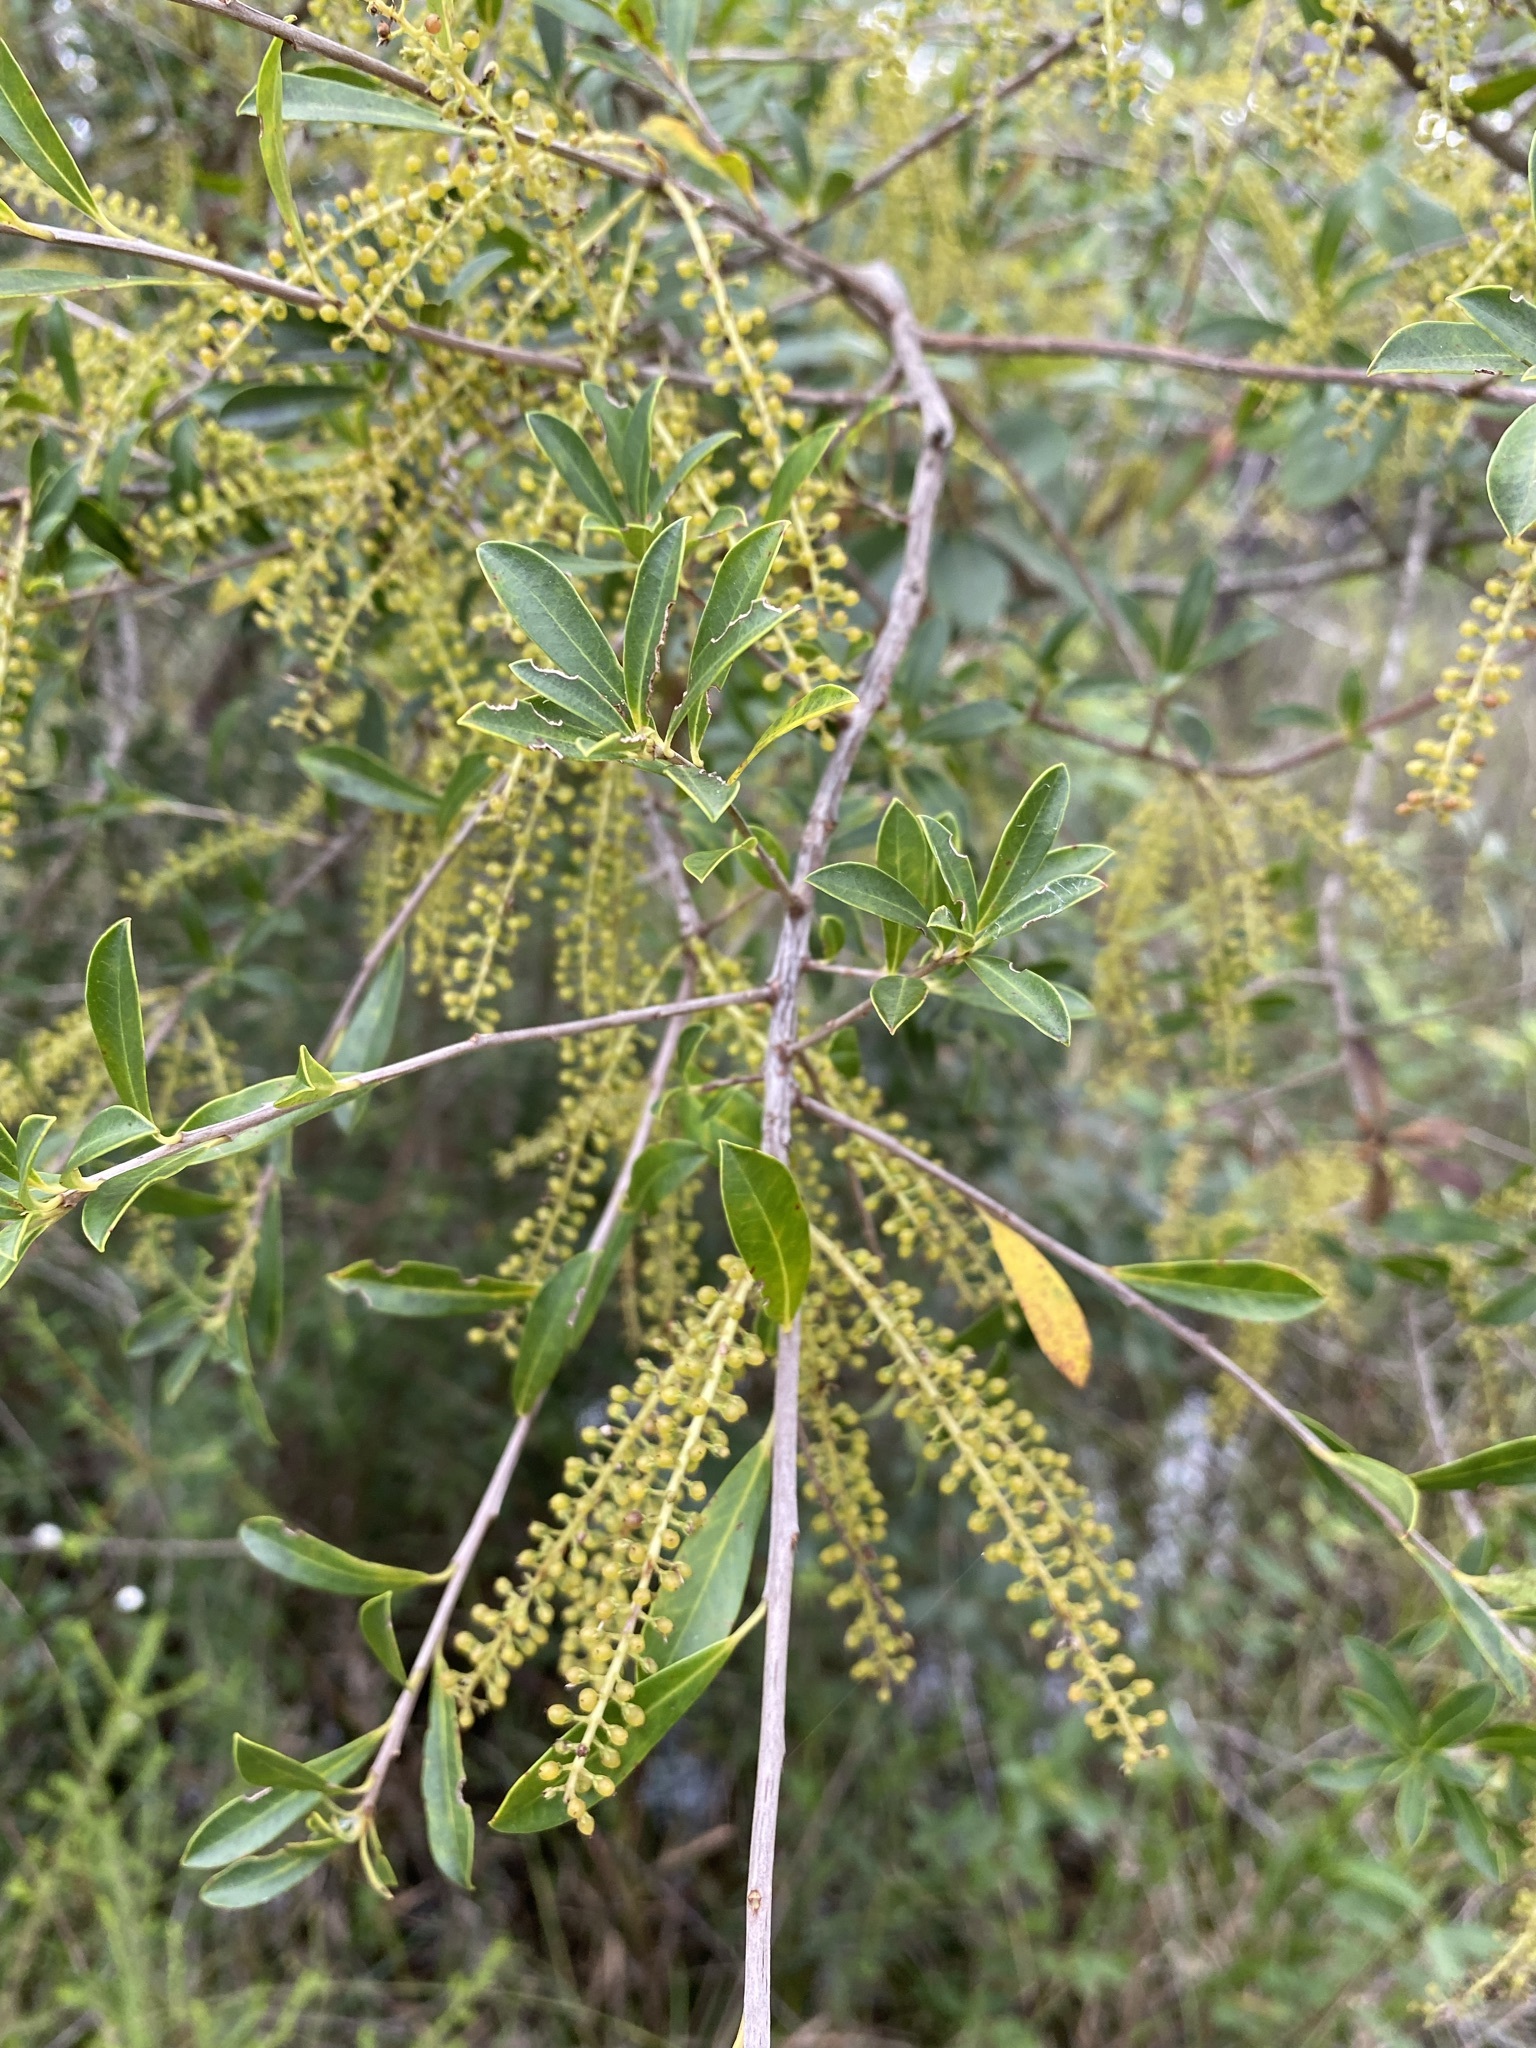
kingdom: Plantae
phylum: Tracheophyta
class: Magnoliopsida
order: Ericales
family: Cyrillaceae
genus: Cyrilla
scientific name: Cyrilla racemiflora
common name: Black titi
